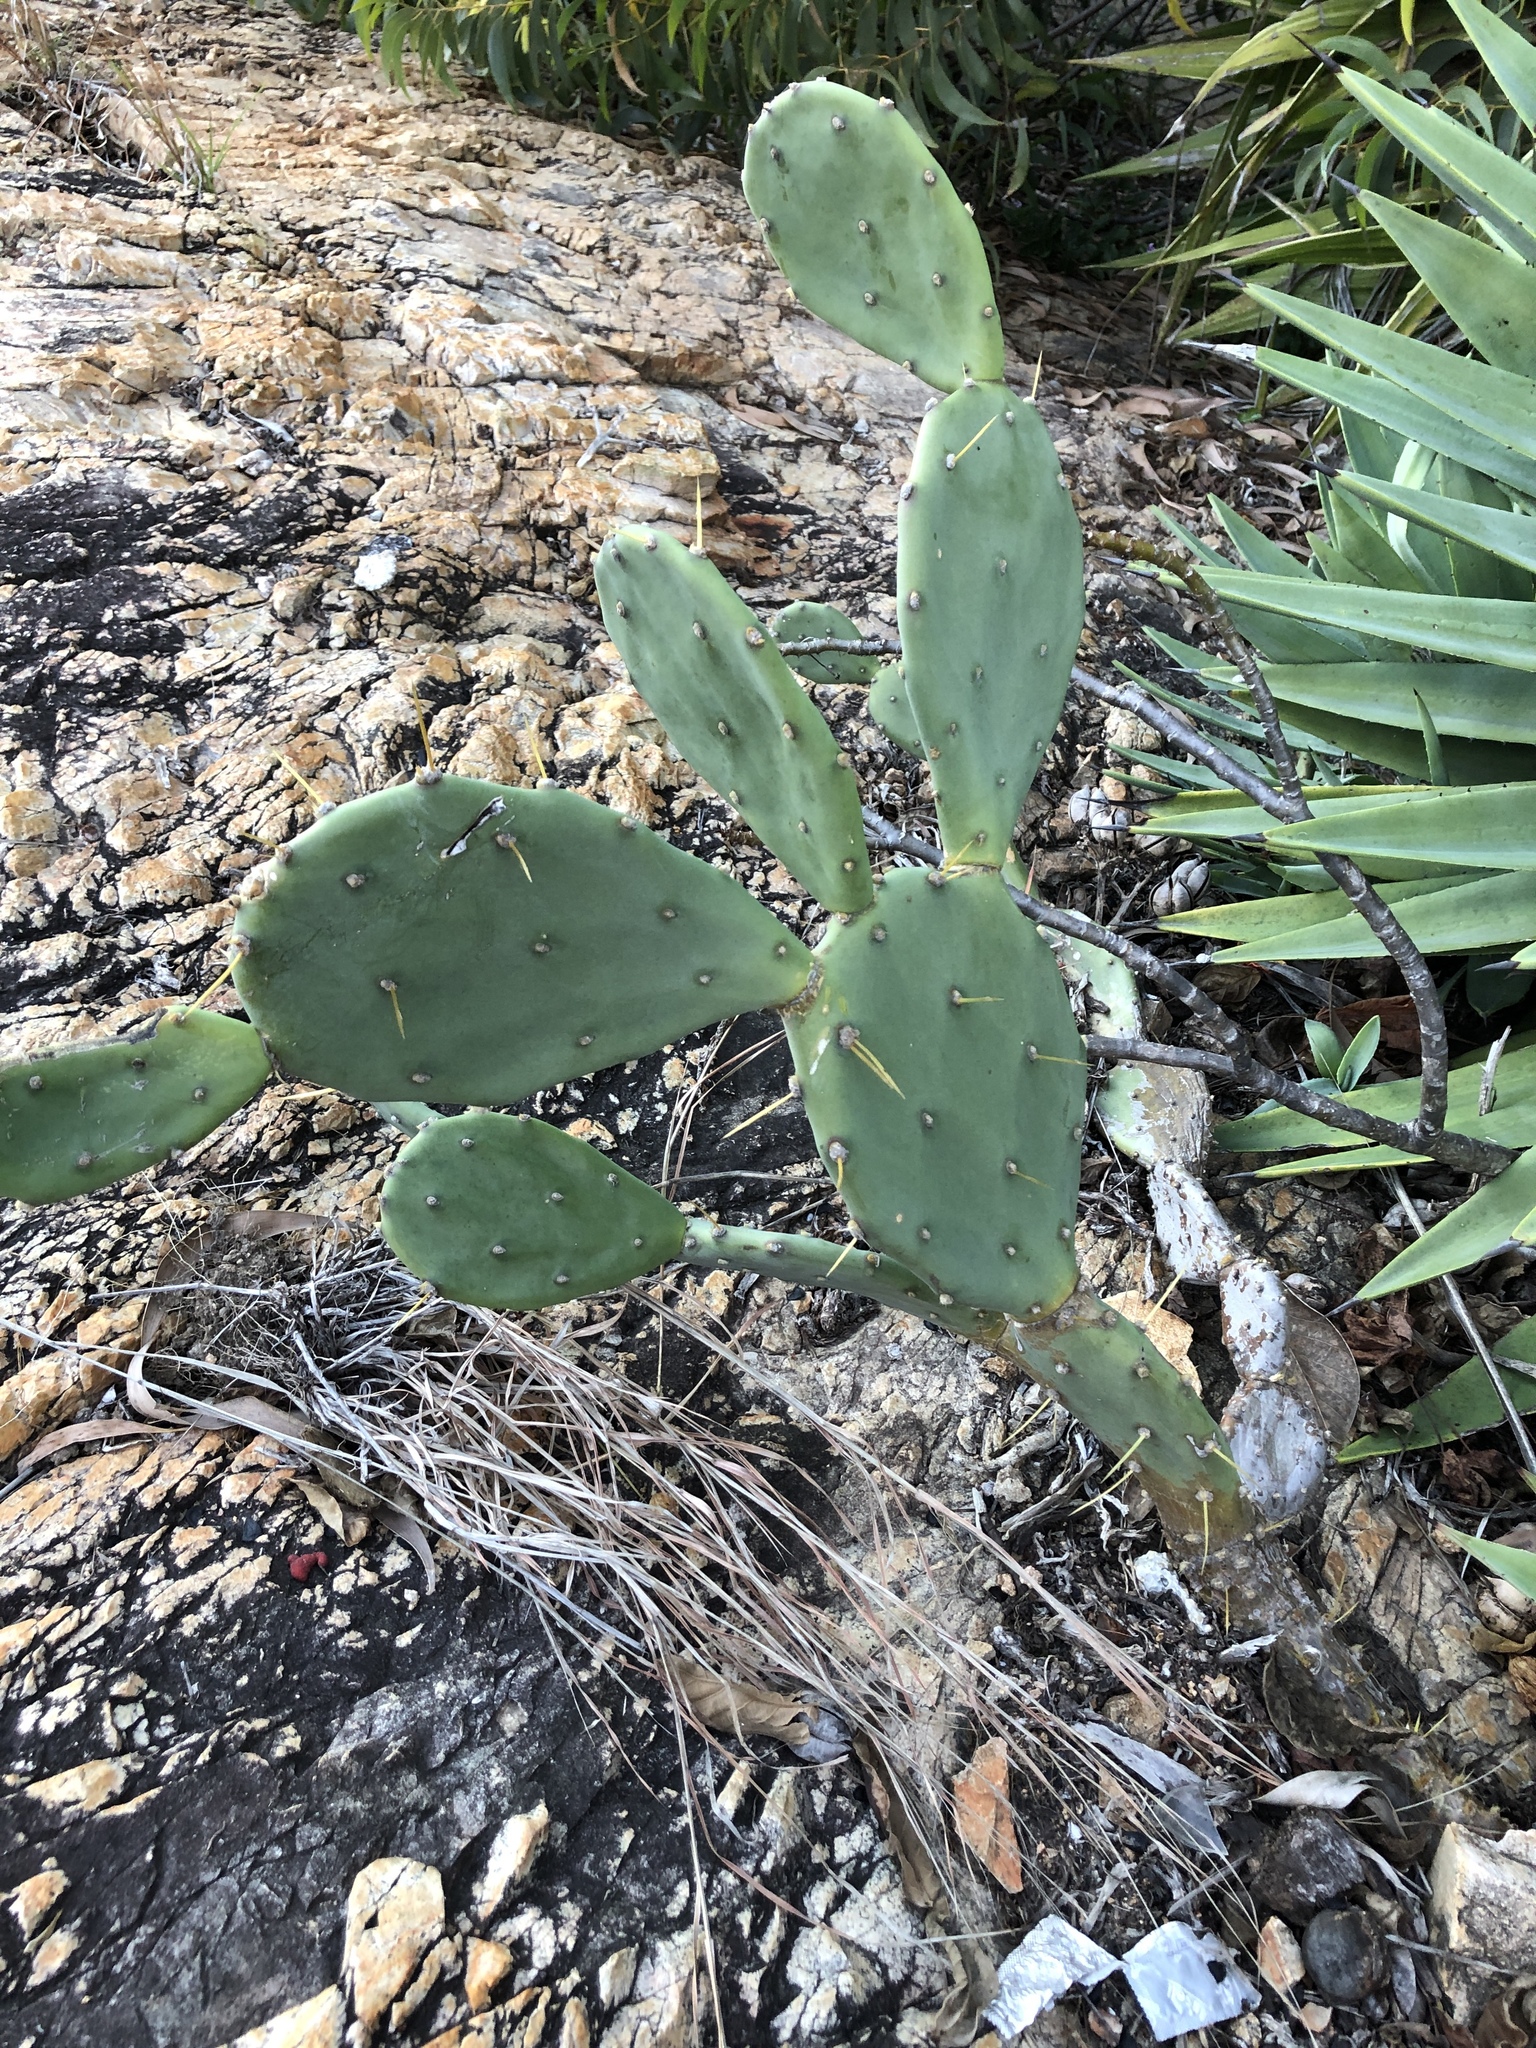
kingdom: Plantae
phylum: Tracheophyta
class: Magnoliopsida
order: Caryophyllales
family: Cactaceae
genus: Opuntia
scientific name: Opuntia stricta
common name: Erect pricklypear
